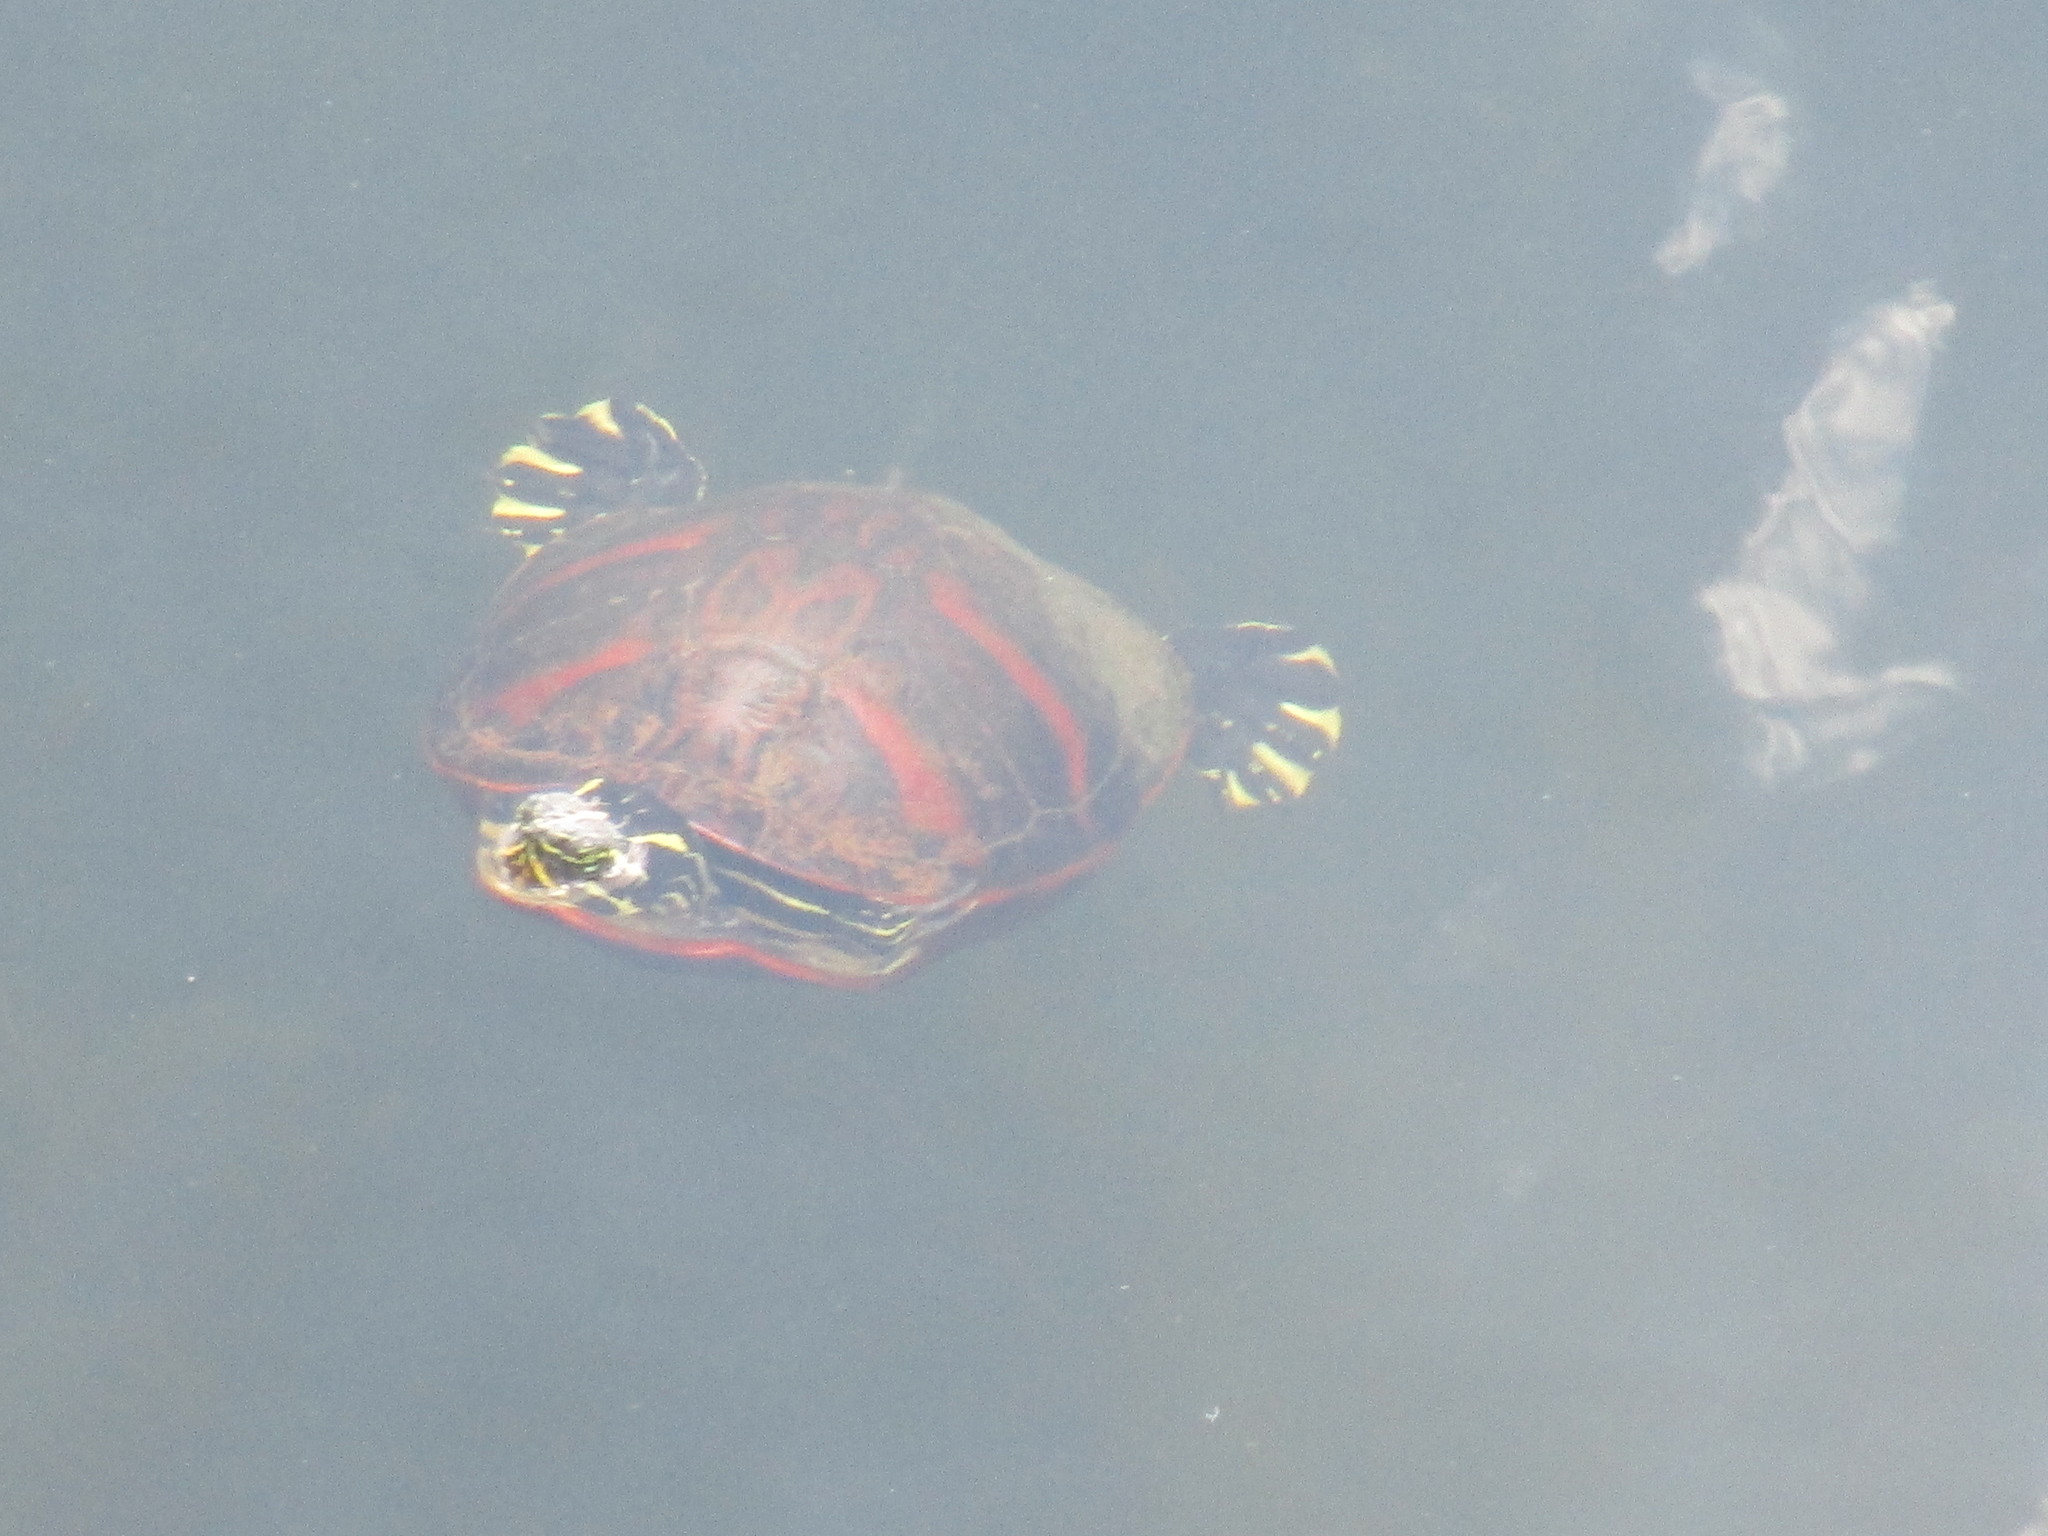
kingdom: Animalia
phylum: Chordata
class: Testudines
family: Emydidae
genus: Pseudemys
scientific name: Pseudemys nelsoni
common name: Florida red-bellied turtle
